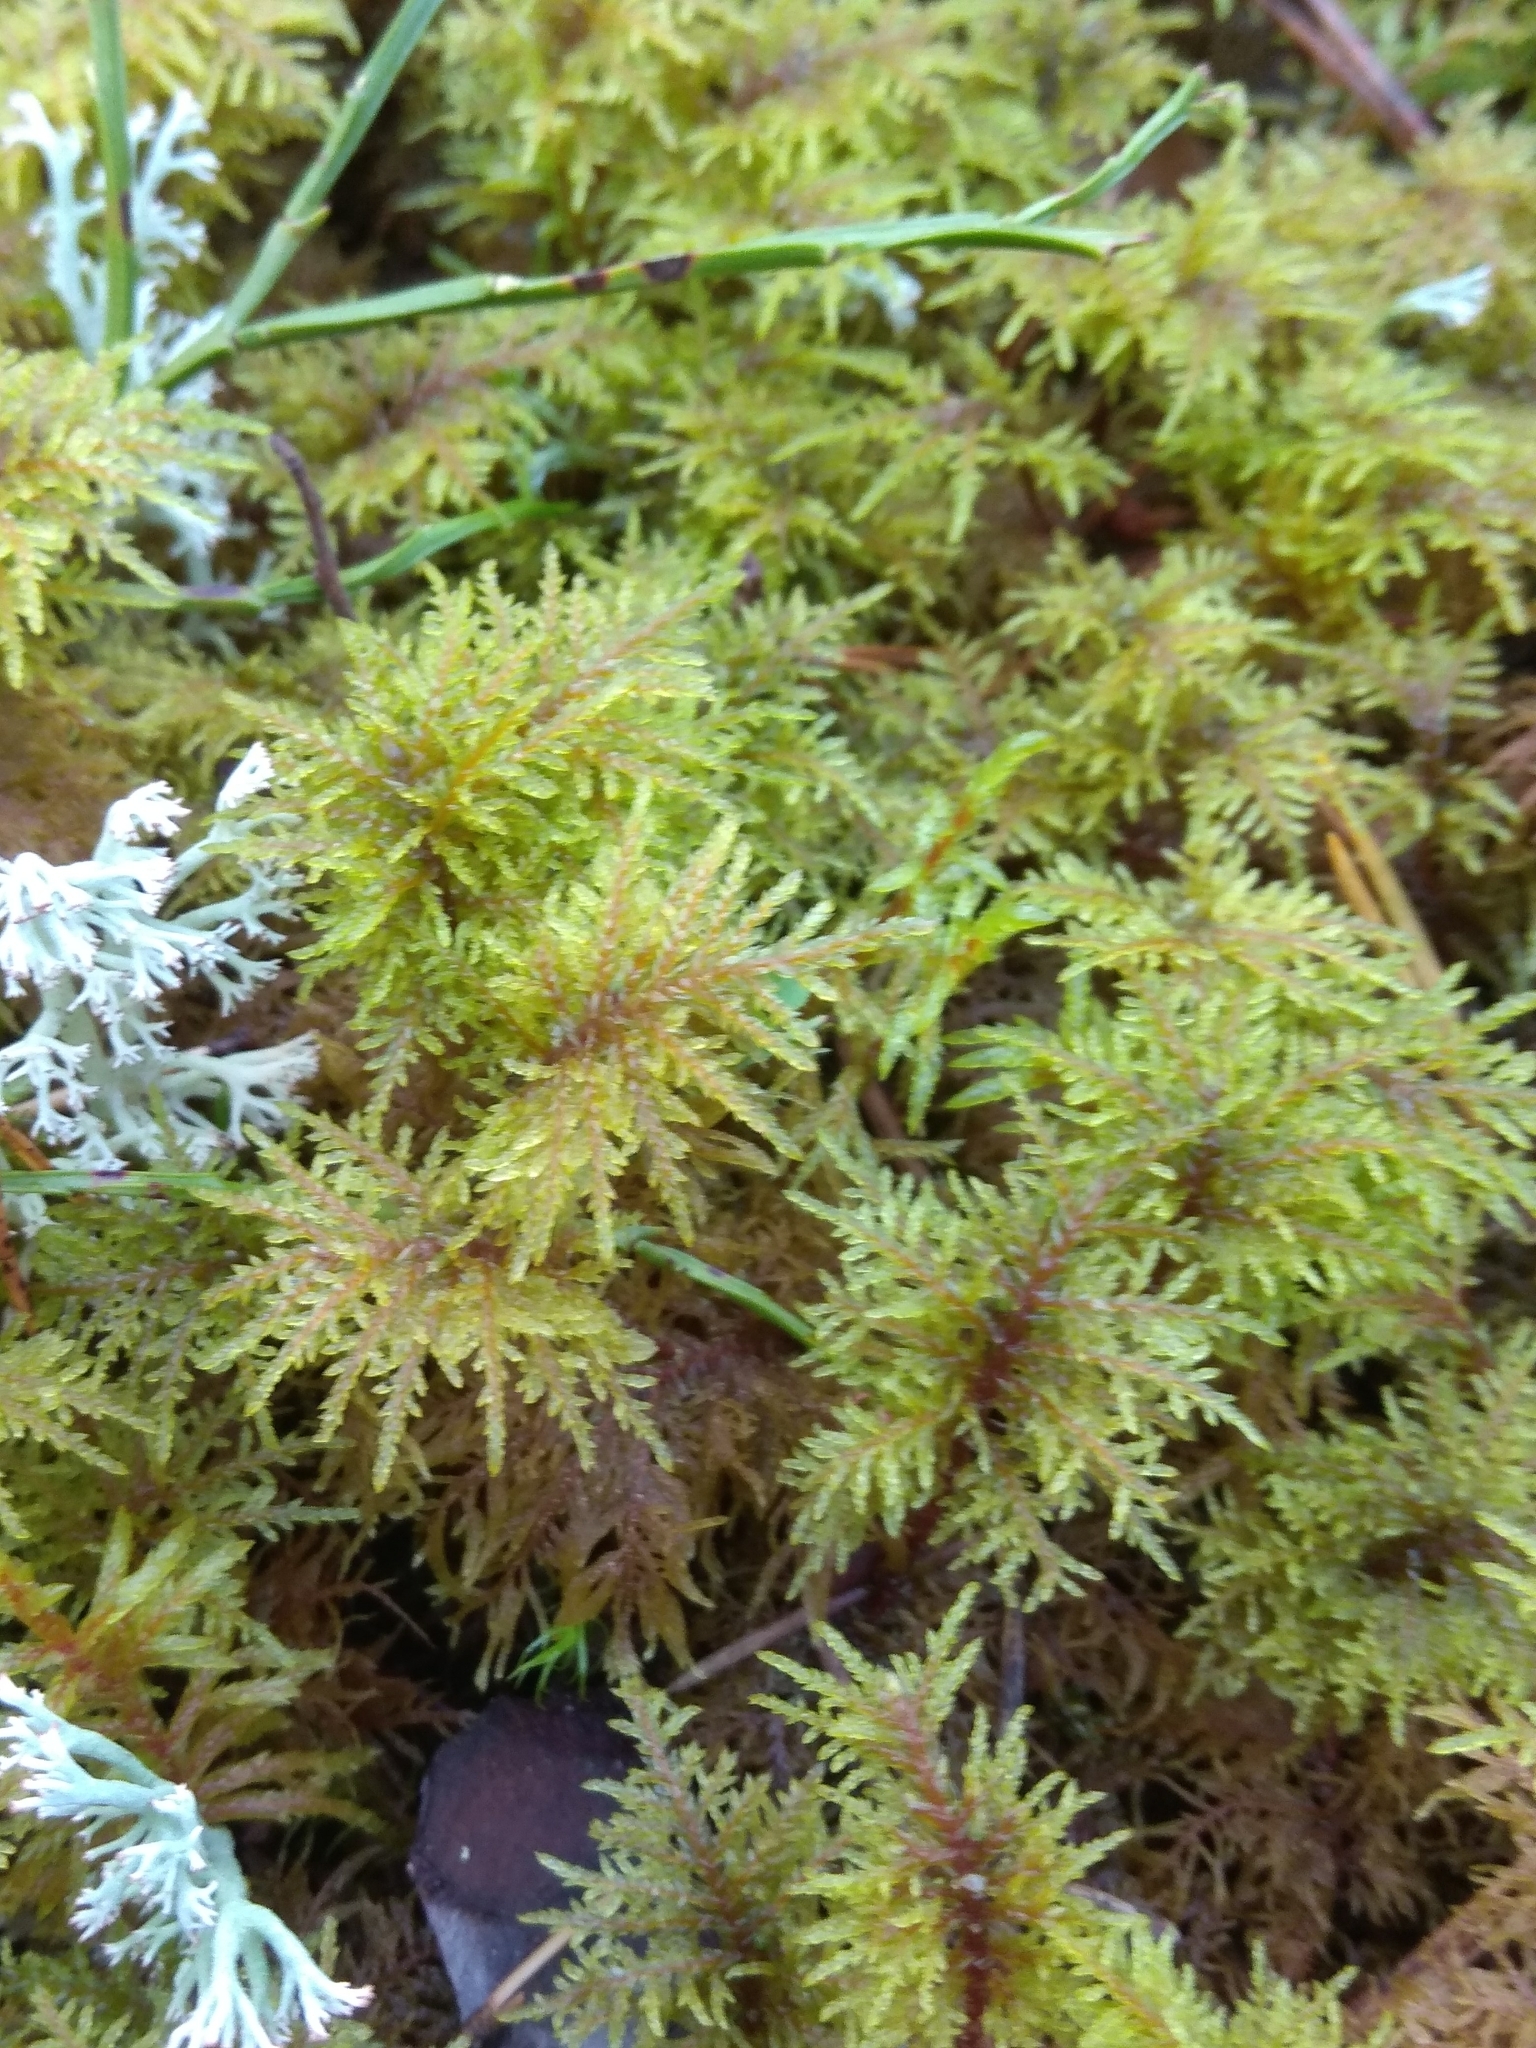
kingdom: Plantae
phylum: Bryophyta
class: Bryopsida
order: Hypnales
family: Hylocomiaceae
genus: Hylocomium
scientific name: Hylocomium splendens
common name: Stairstep moss
